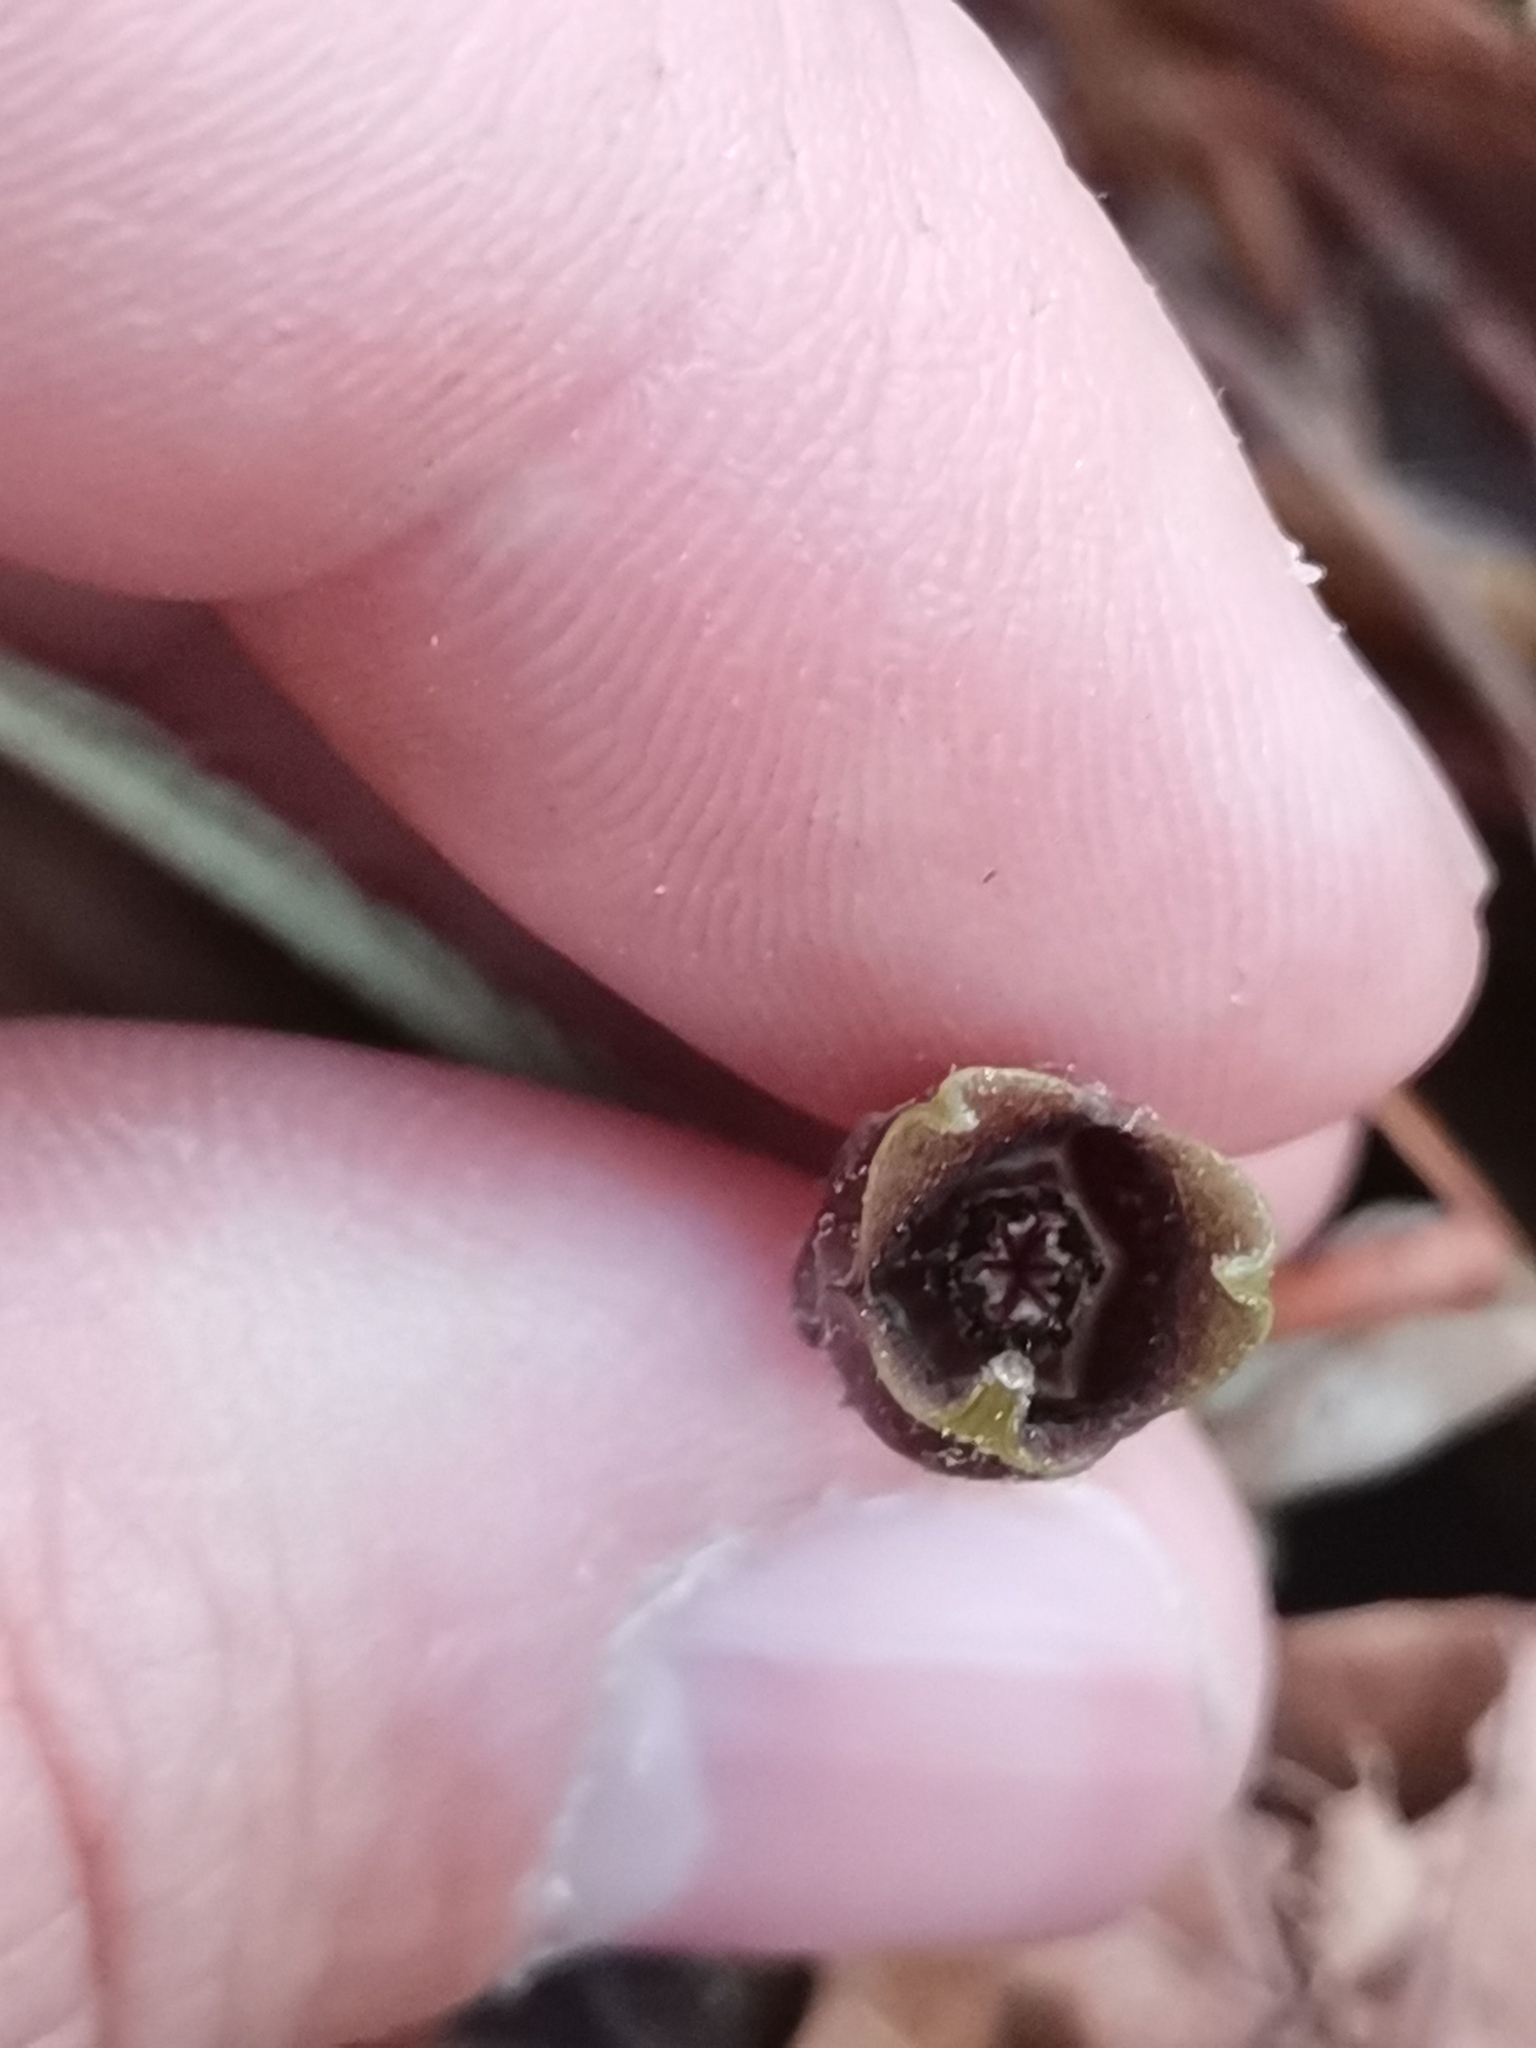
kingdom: Plantae
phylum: Tracheophyta
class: Magnoliopsida
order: Piperales
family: Aristolochiaceae
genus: Asarum
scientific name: Asarum europaeum
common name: Asarabacca
